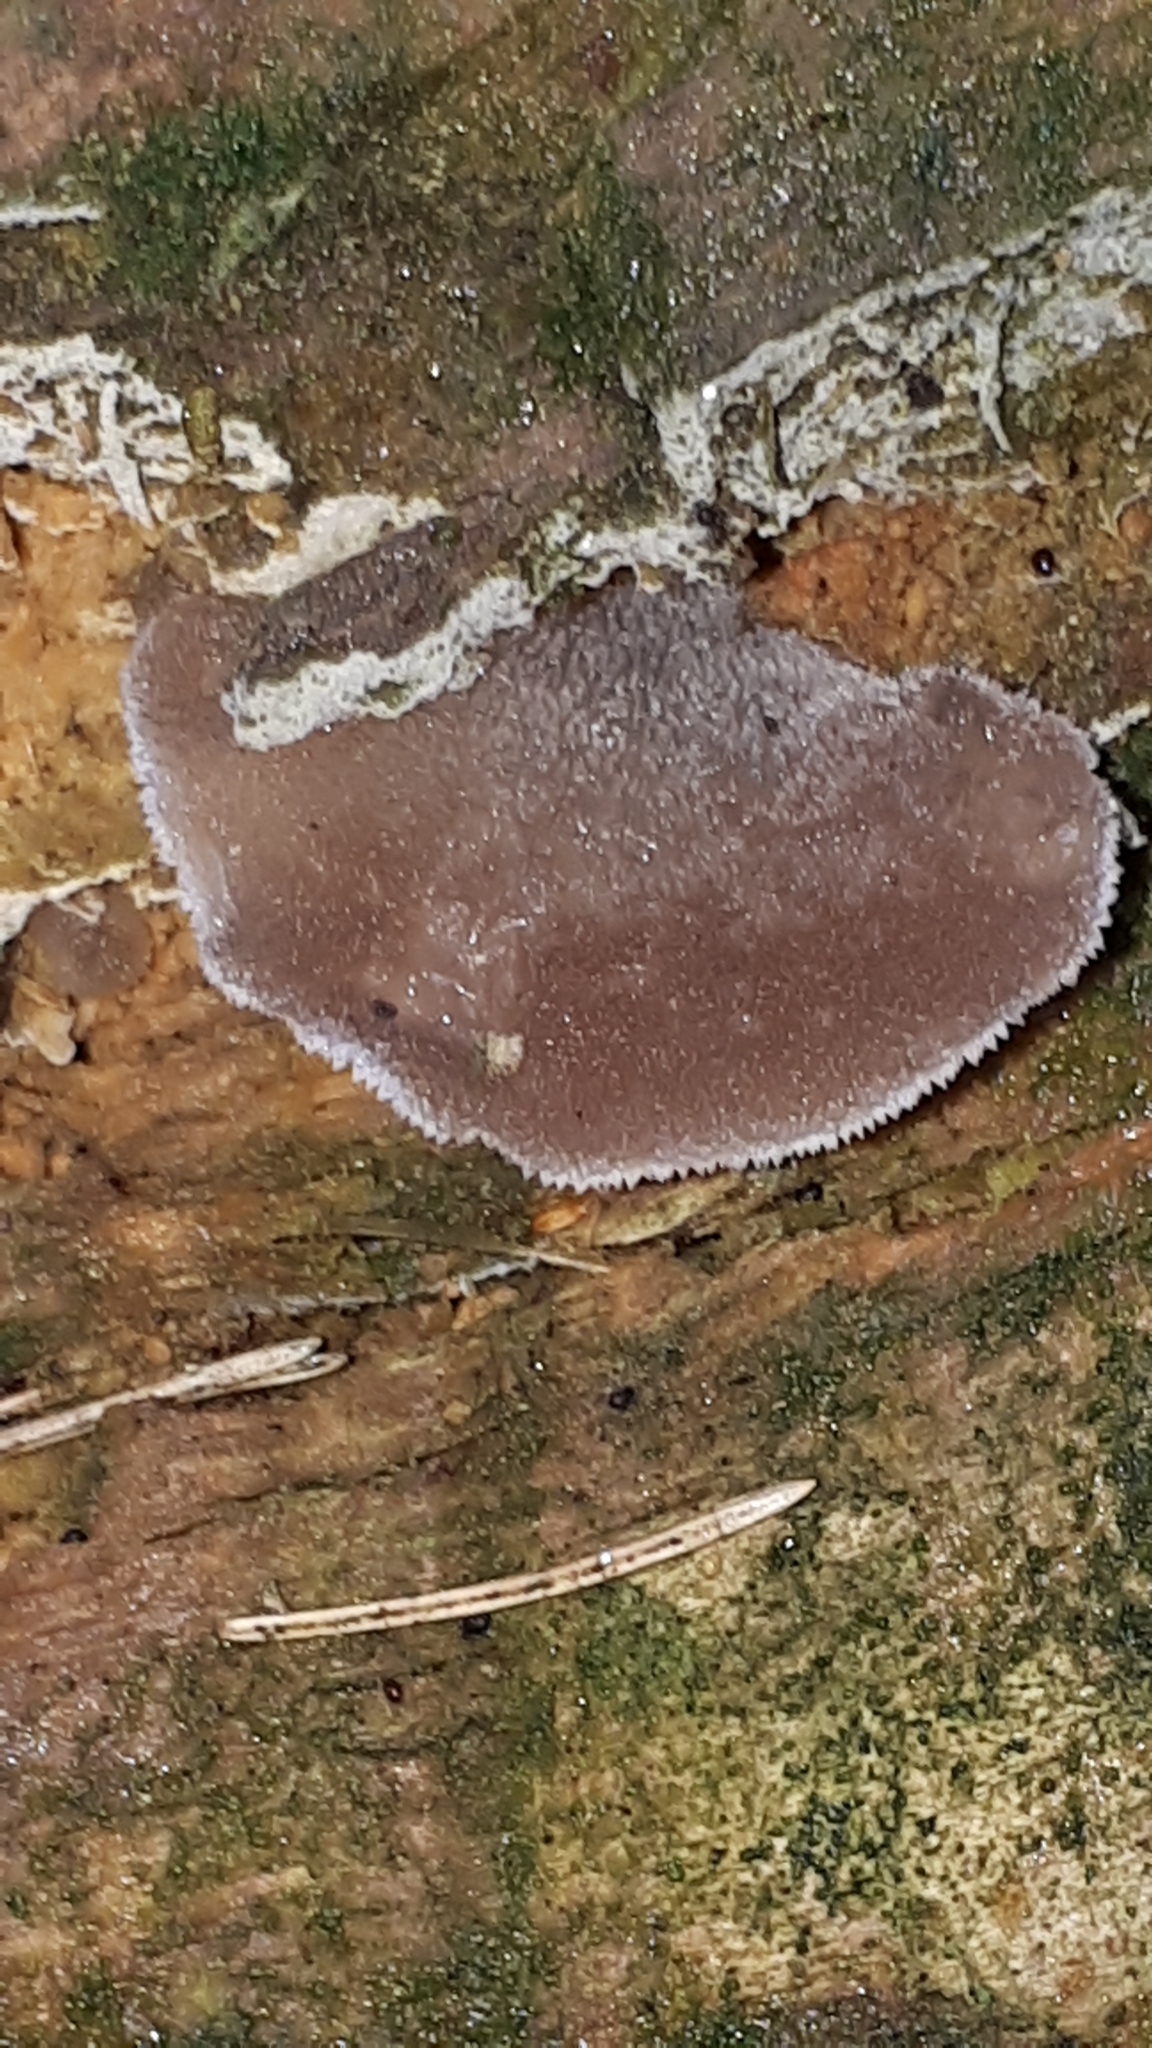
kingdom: Fungi
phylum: Basidiomycota
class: Agaricomycetes
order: Auriculariales
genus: Pseudohydnum
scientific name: Pseudohydnum gelatinosum
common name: Jelly tongue
